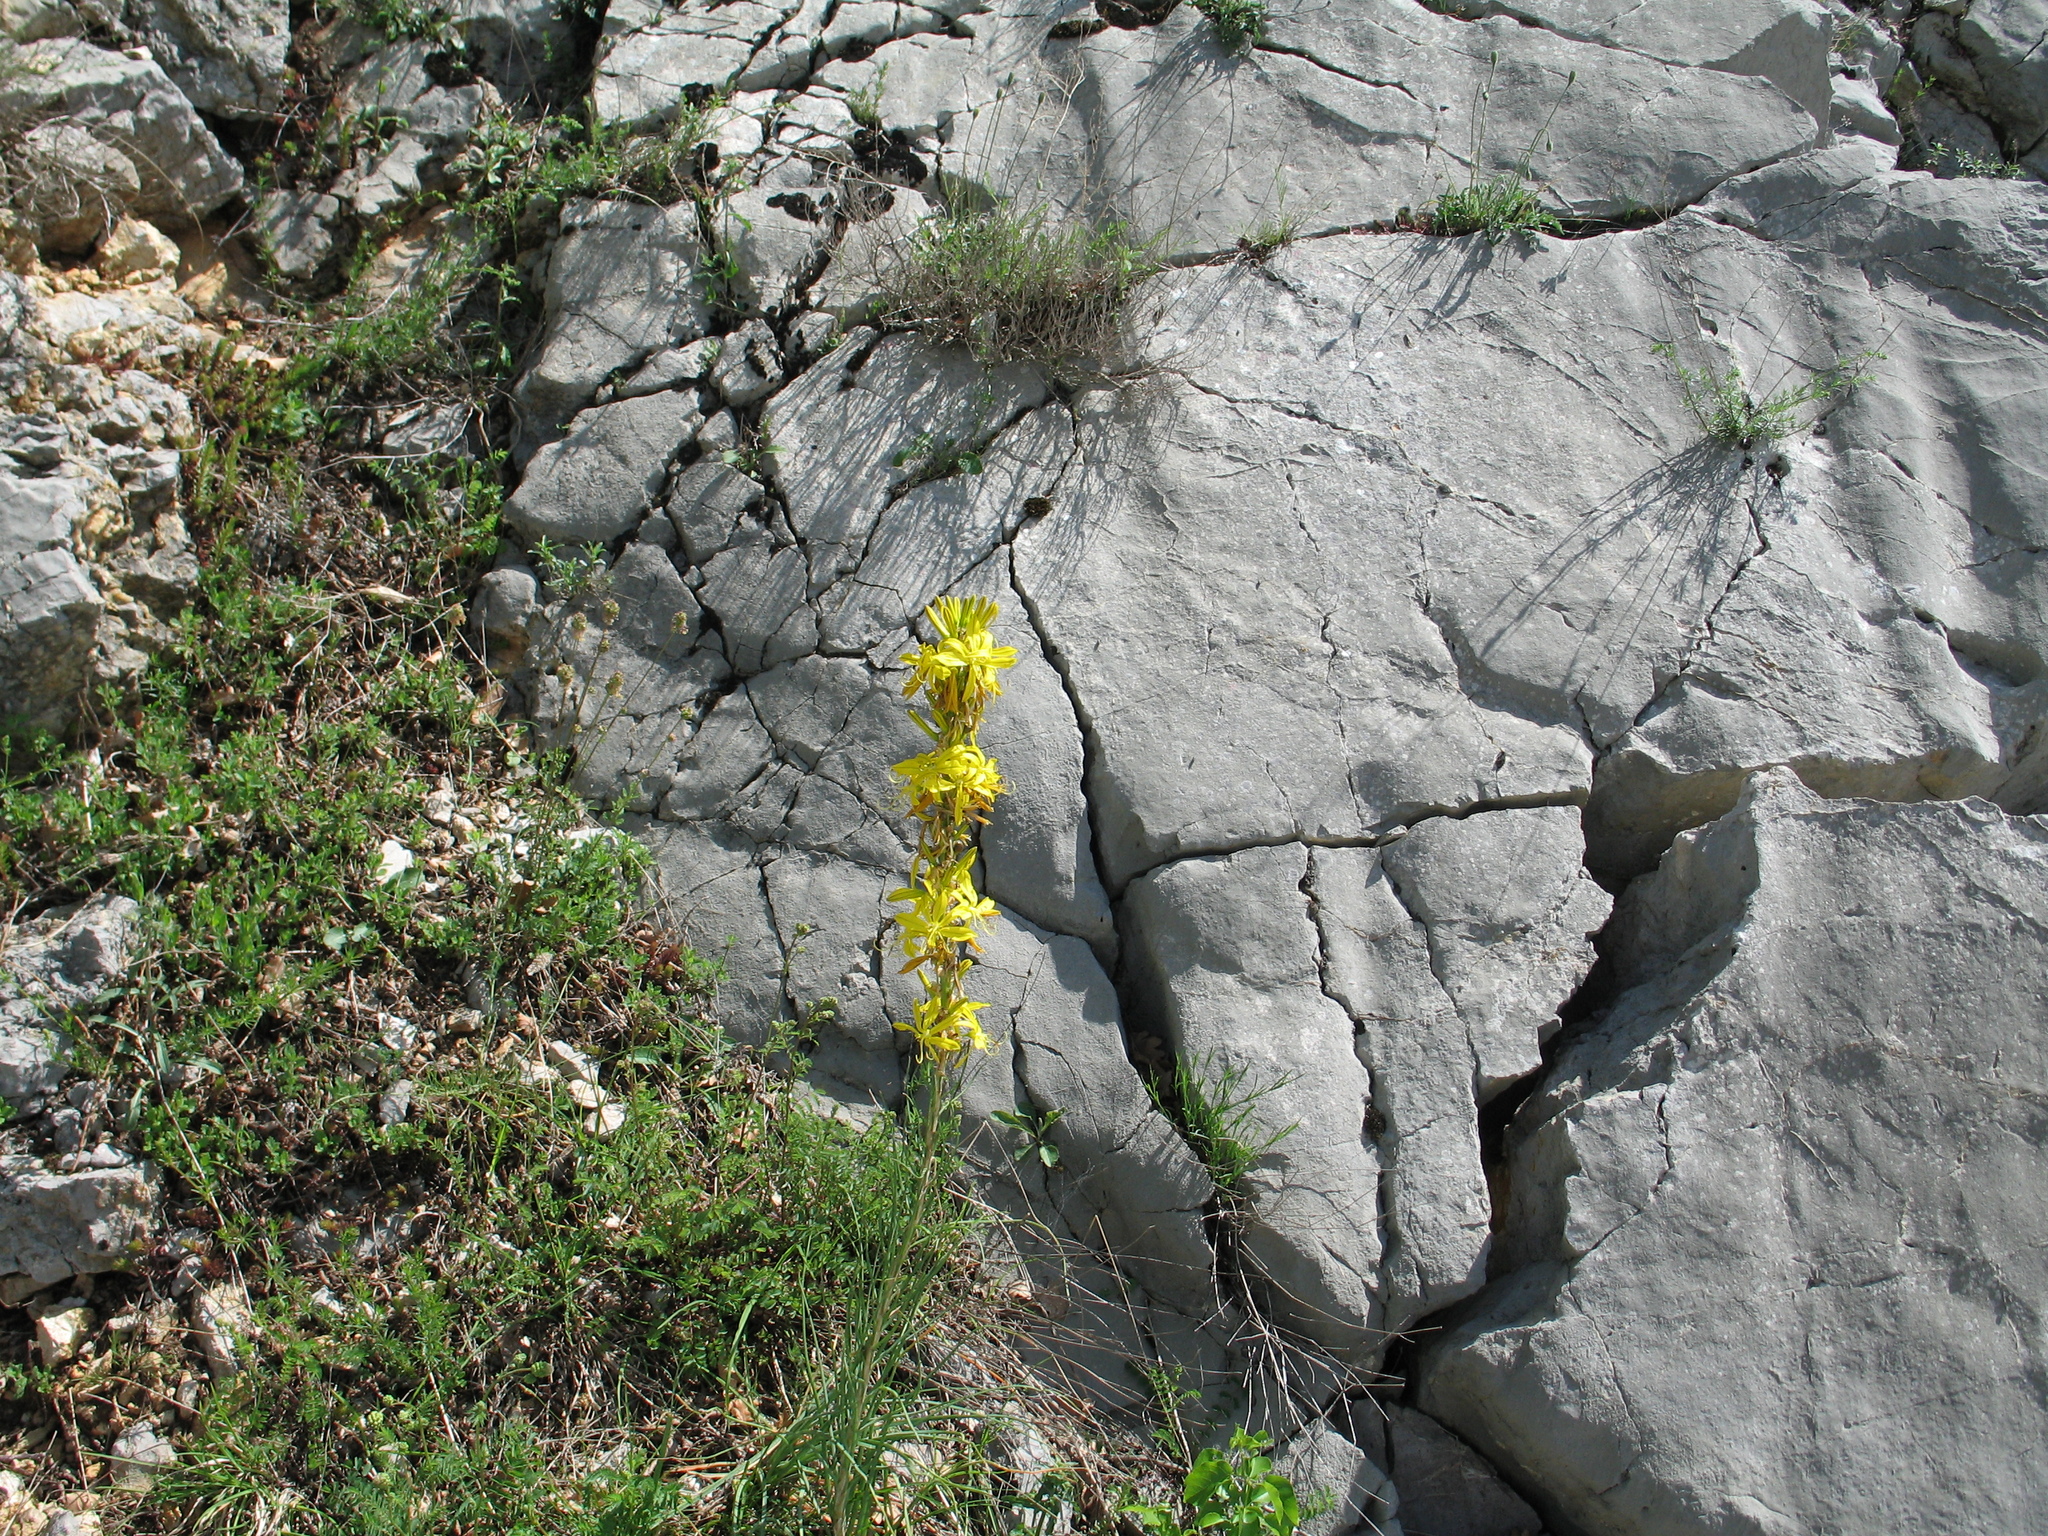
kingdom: Plantae
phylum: Tracheophyta
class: Liliopsida
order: Asparagales
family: Asphodelaceae
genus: Asphodeline
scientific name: Asphodeline lutea
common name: Yellow asphodel
